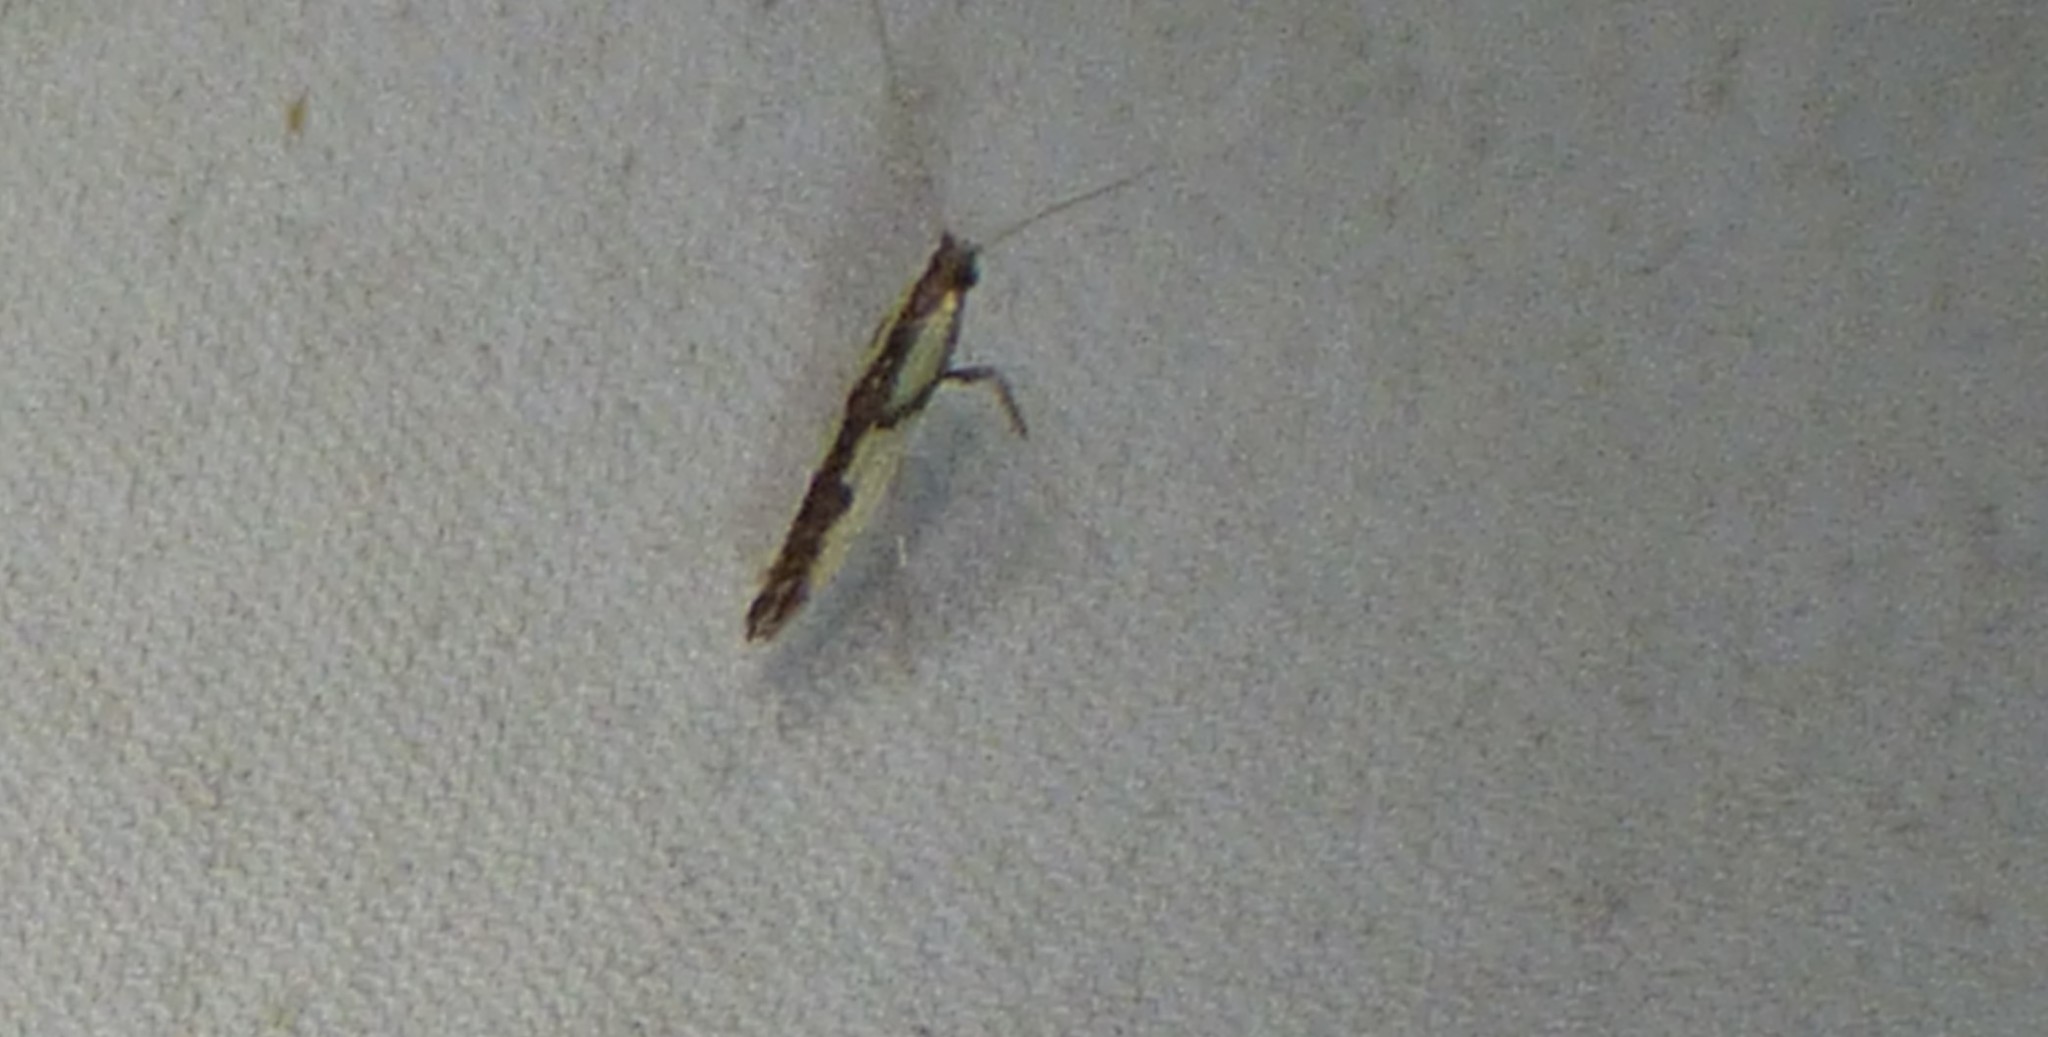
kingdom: Animalia
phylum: Arthropoda
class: Insecta
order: Lepidoptera
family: Gracillariidae
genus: Caloptilia
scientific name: Caloptilia blandella
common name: Walnut caloptilia moth
